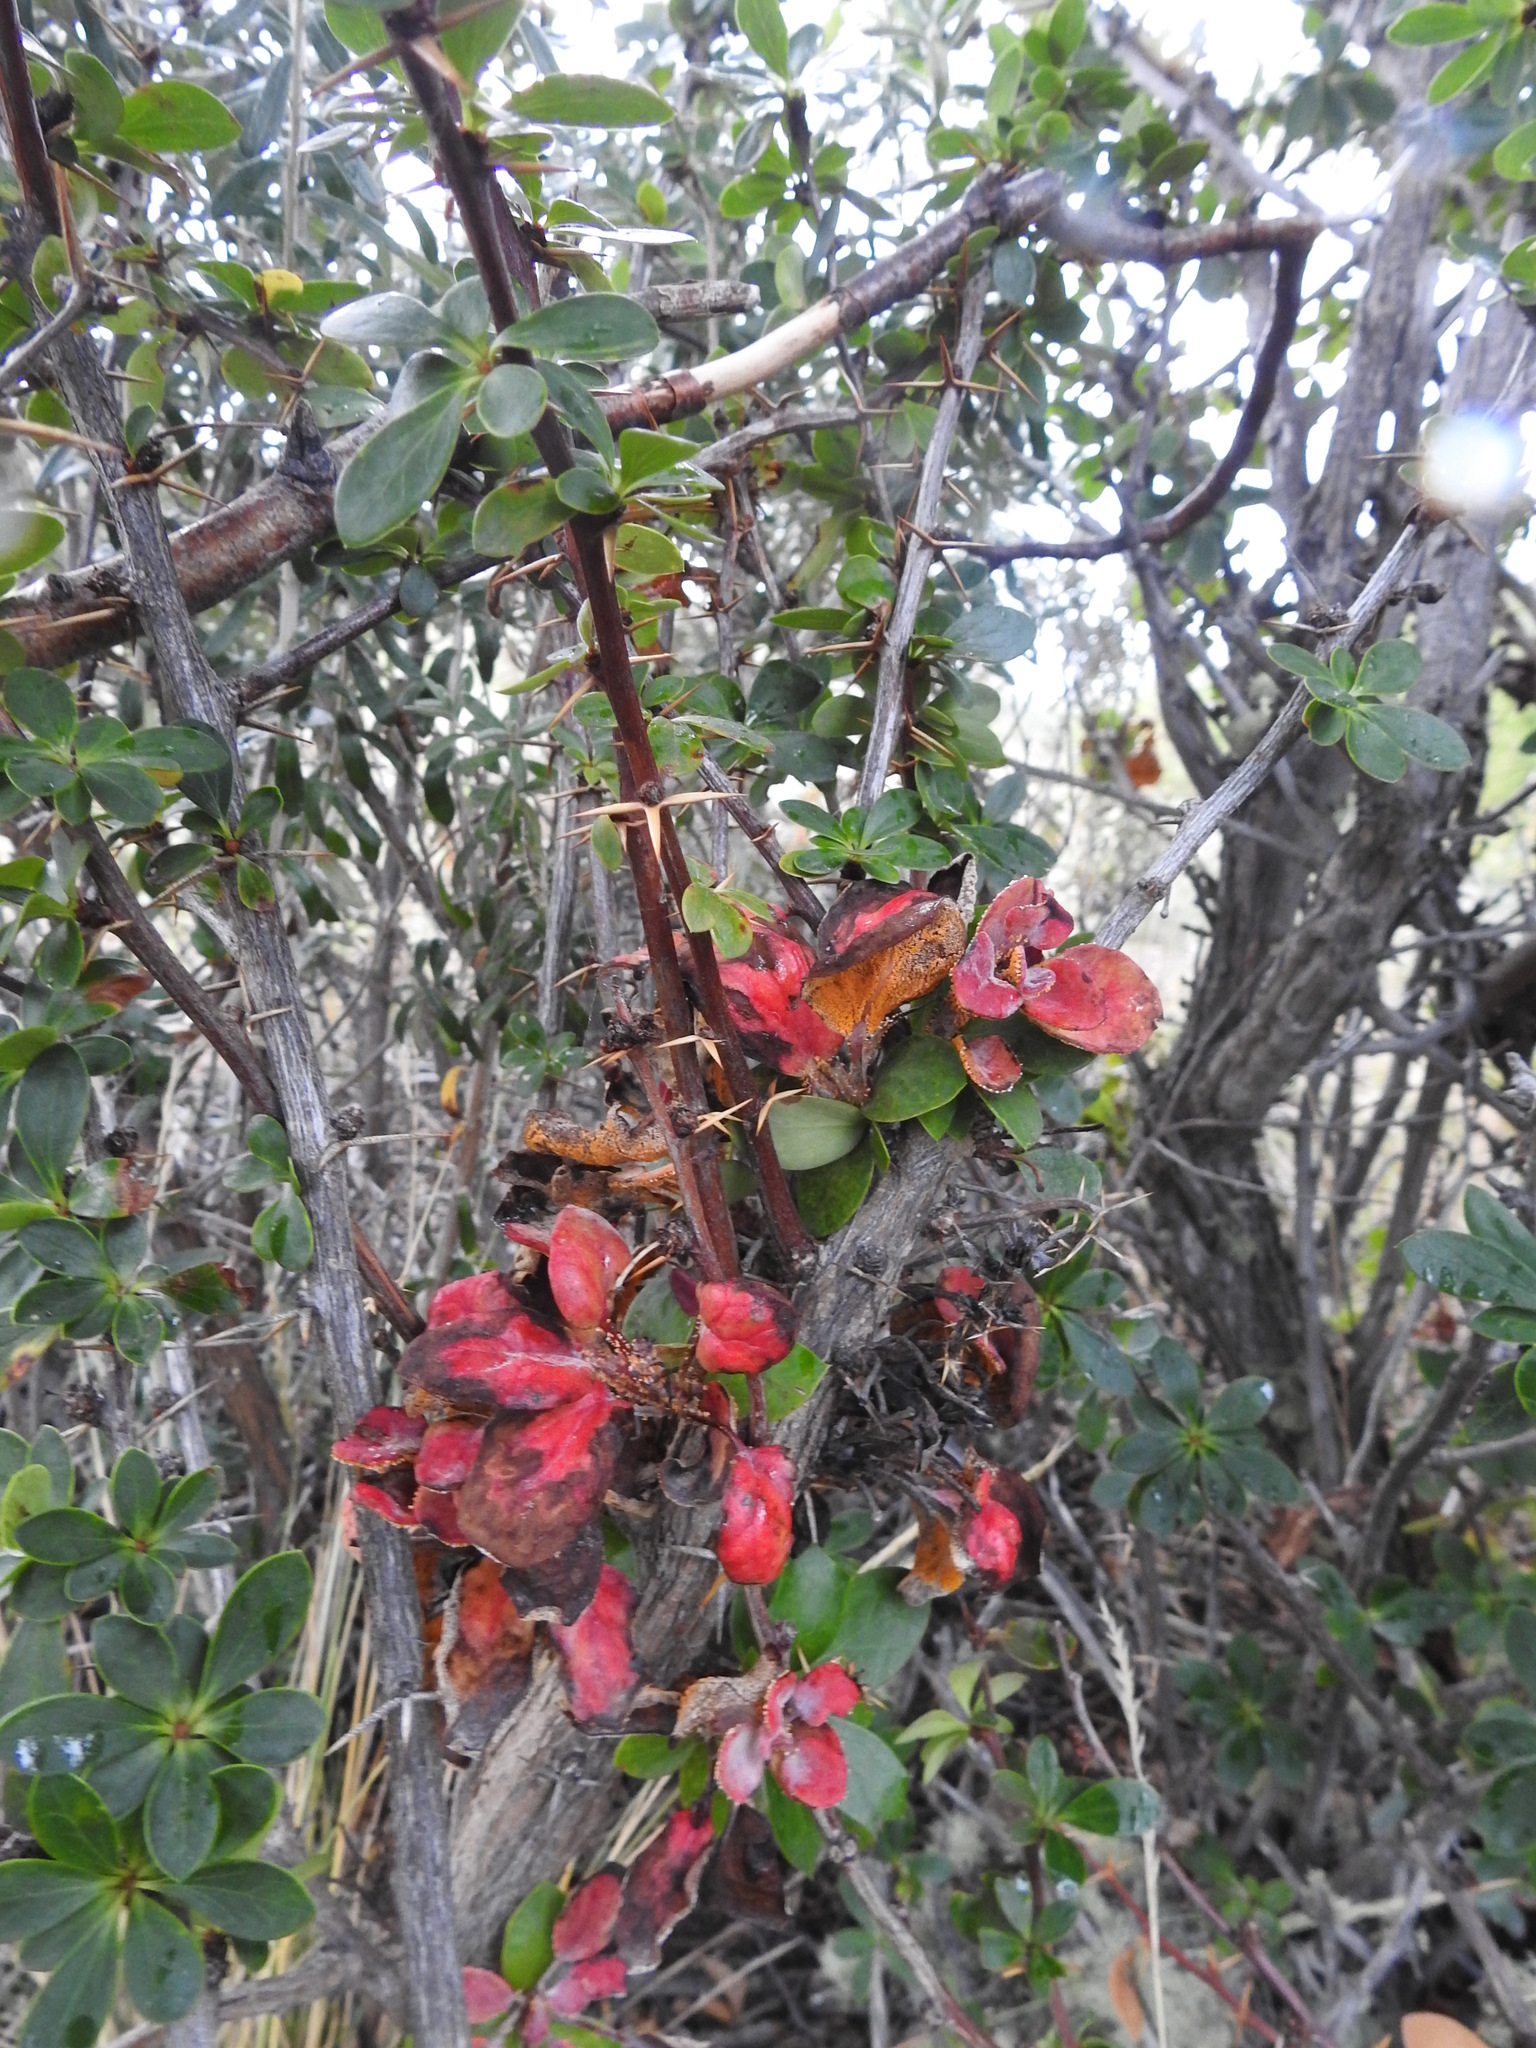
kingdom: Fungi
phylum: Basidiomycota
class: Pucciniomycetes
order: Pucciniales
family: Pucciniaceae
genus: Puccinia
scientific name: Puccinia magellanica
